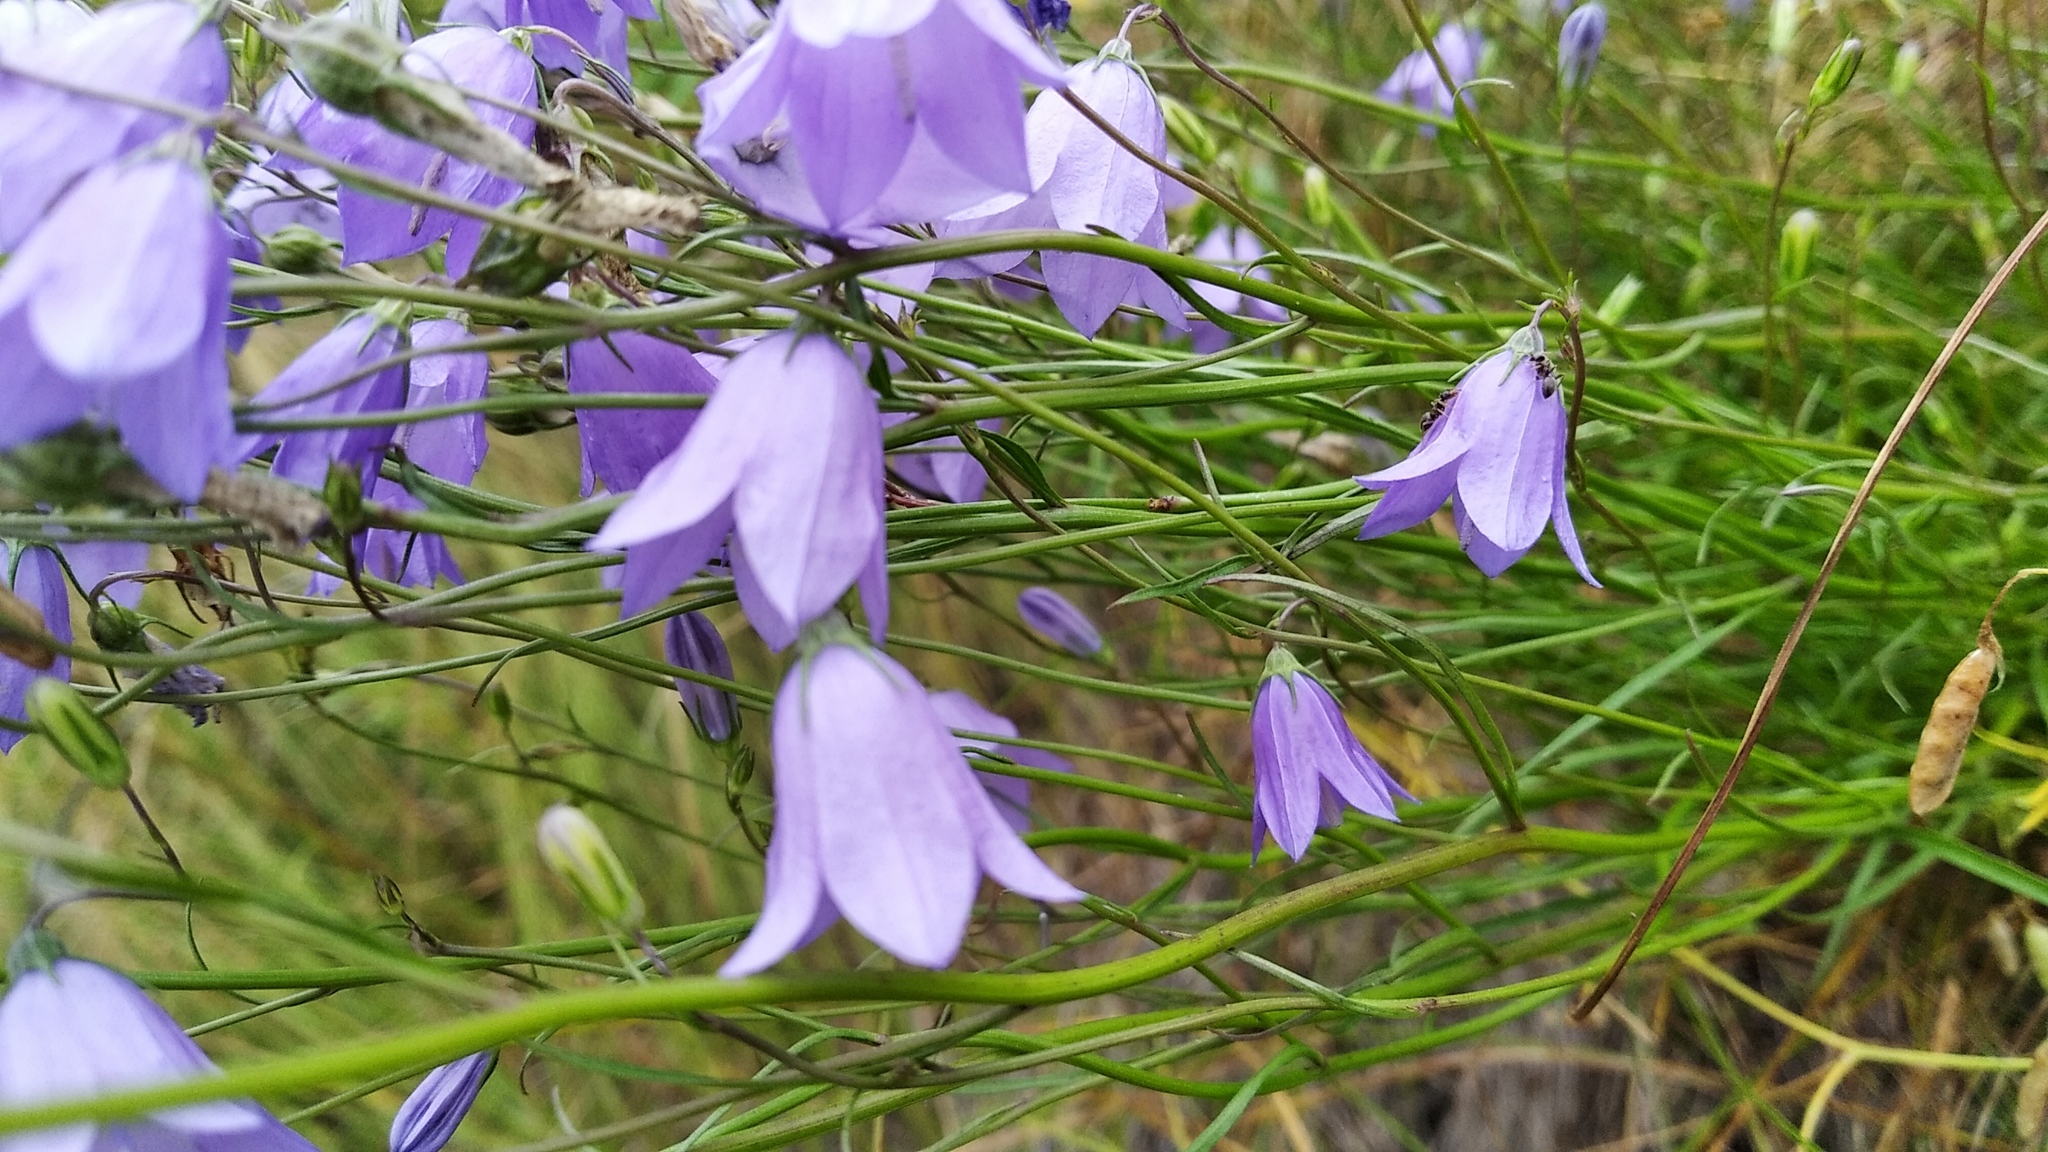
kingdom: Plantae
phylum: Tracheophyta
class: Magnoliopsida
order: Asterales
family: Campanulaceae
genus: Campanula
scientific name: Campanula rotundifolia
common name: Harebell
